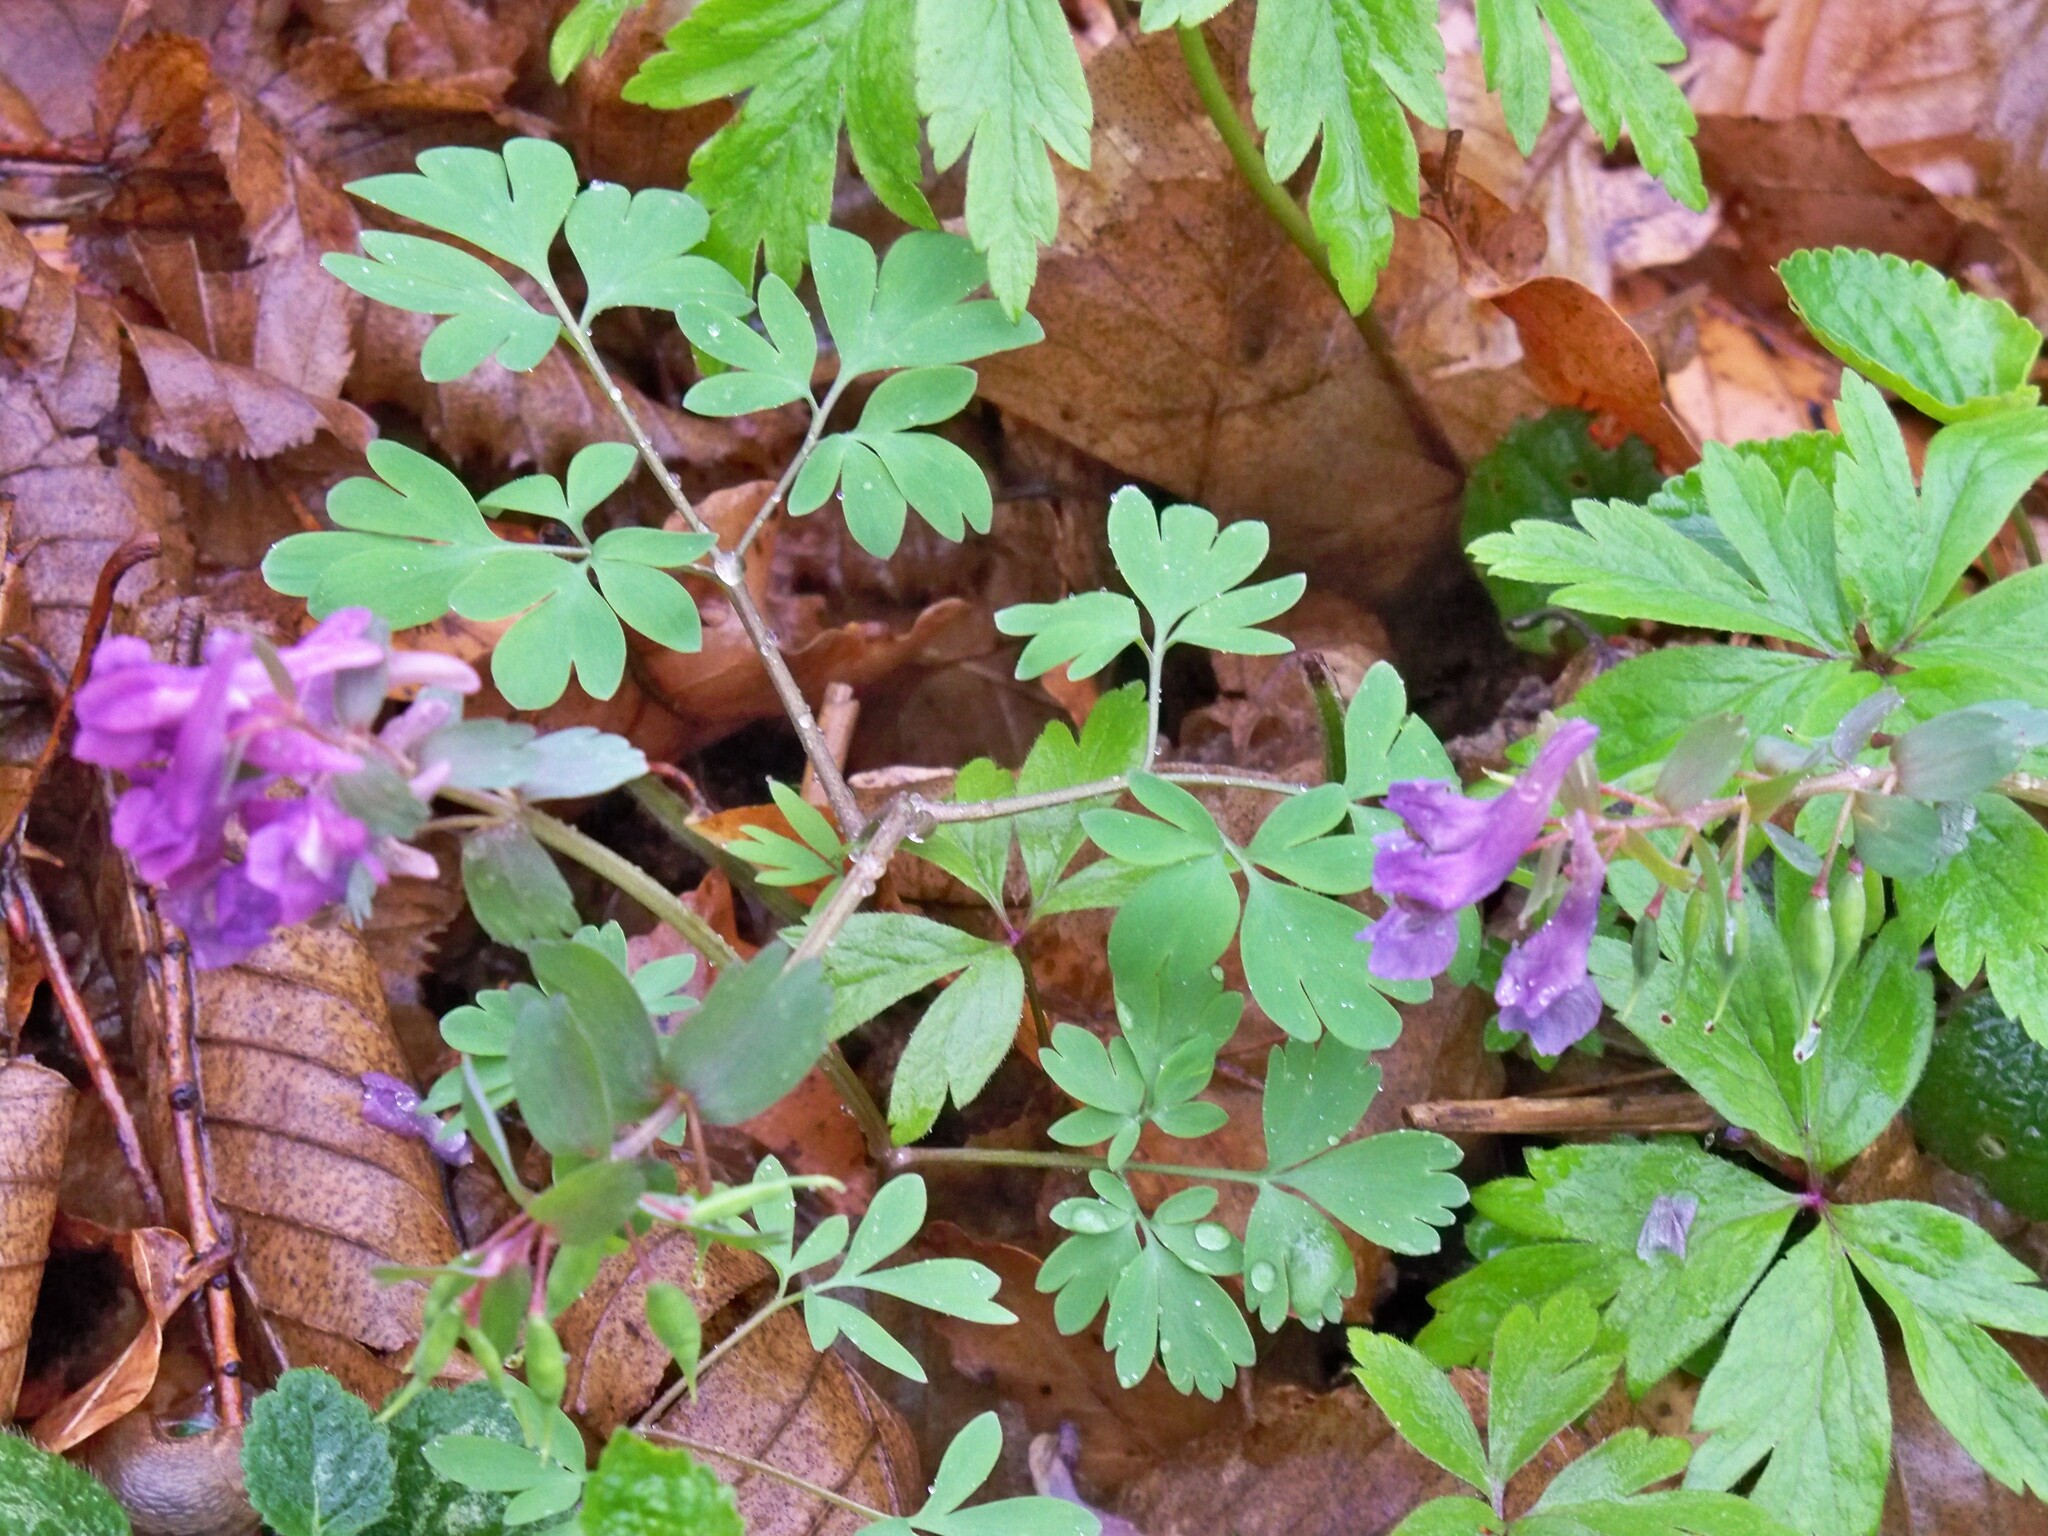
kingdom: Plantae
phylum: Tracheophyta
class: Magnoliopsida
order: Ranunculales
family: Papaveraceae
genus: Corydalis
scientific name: Corydalis solida
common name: Bird-in-a-bush
